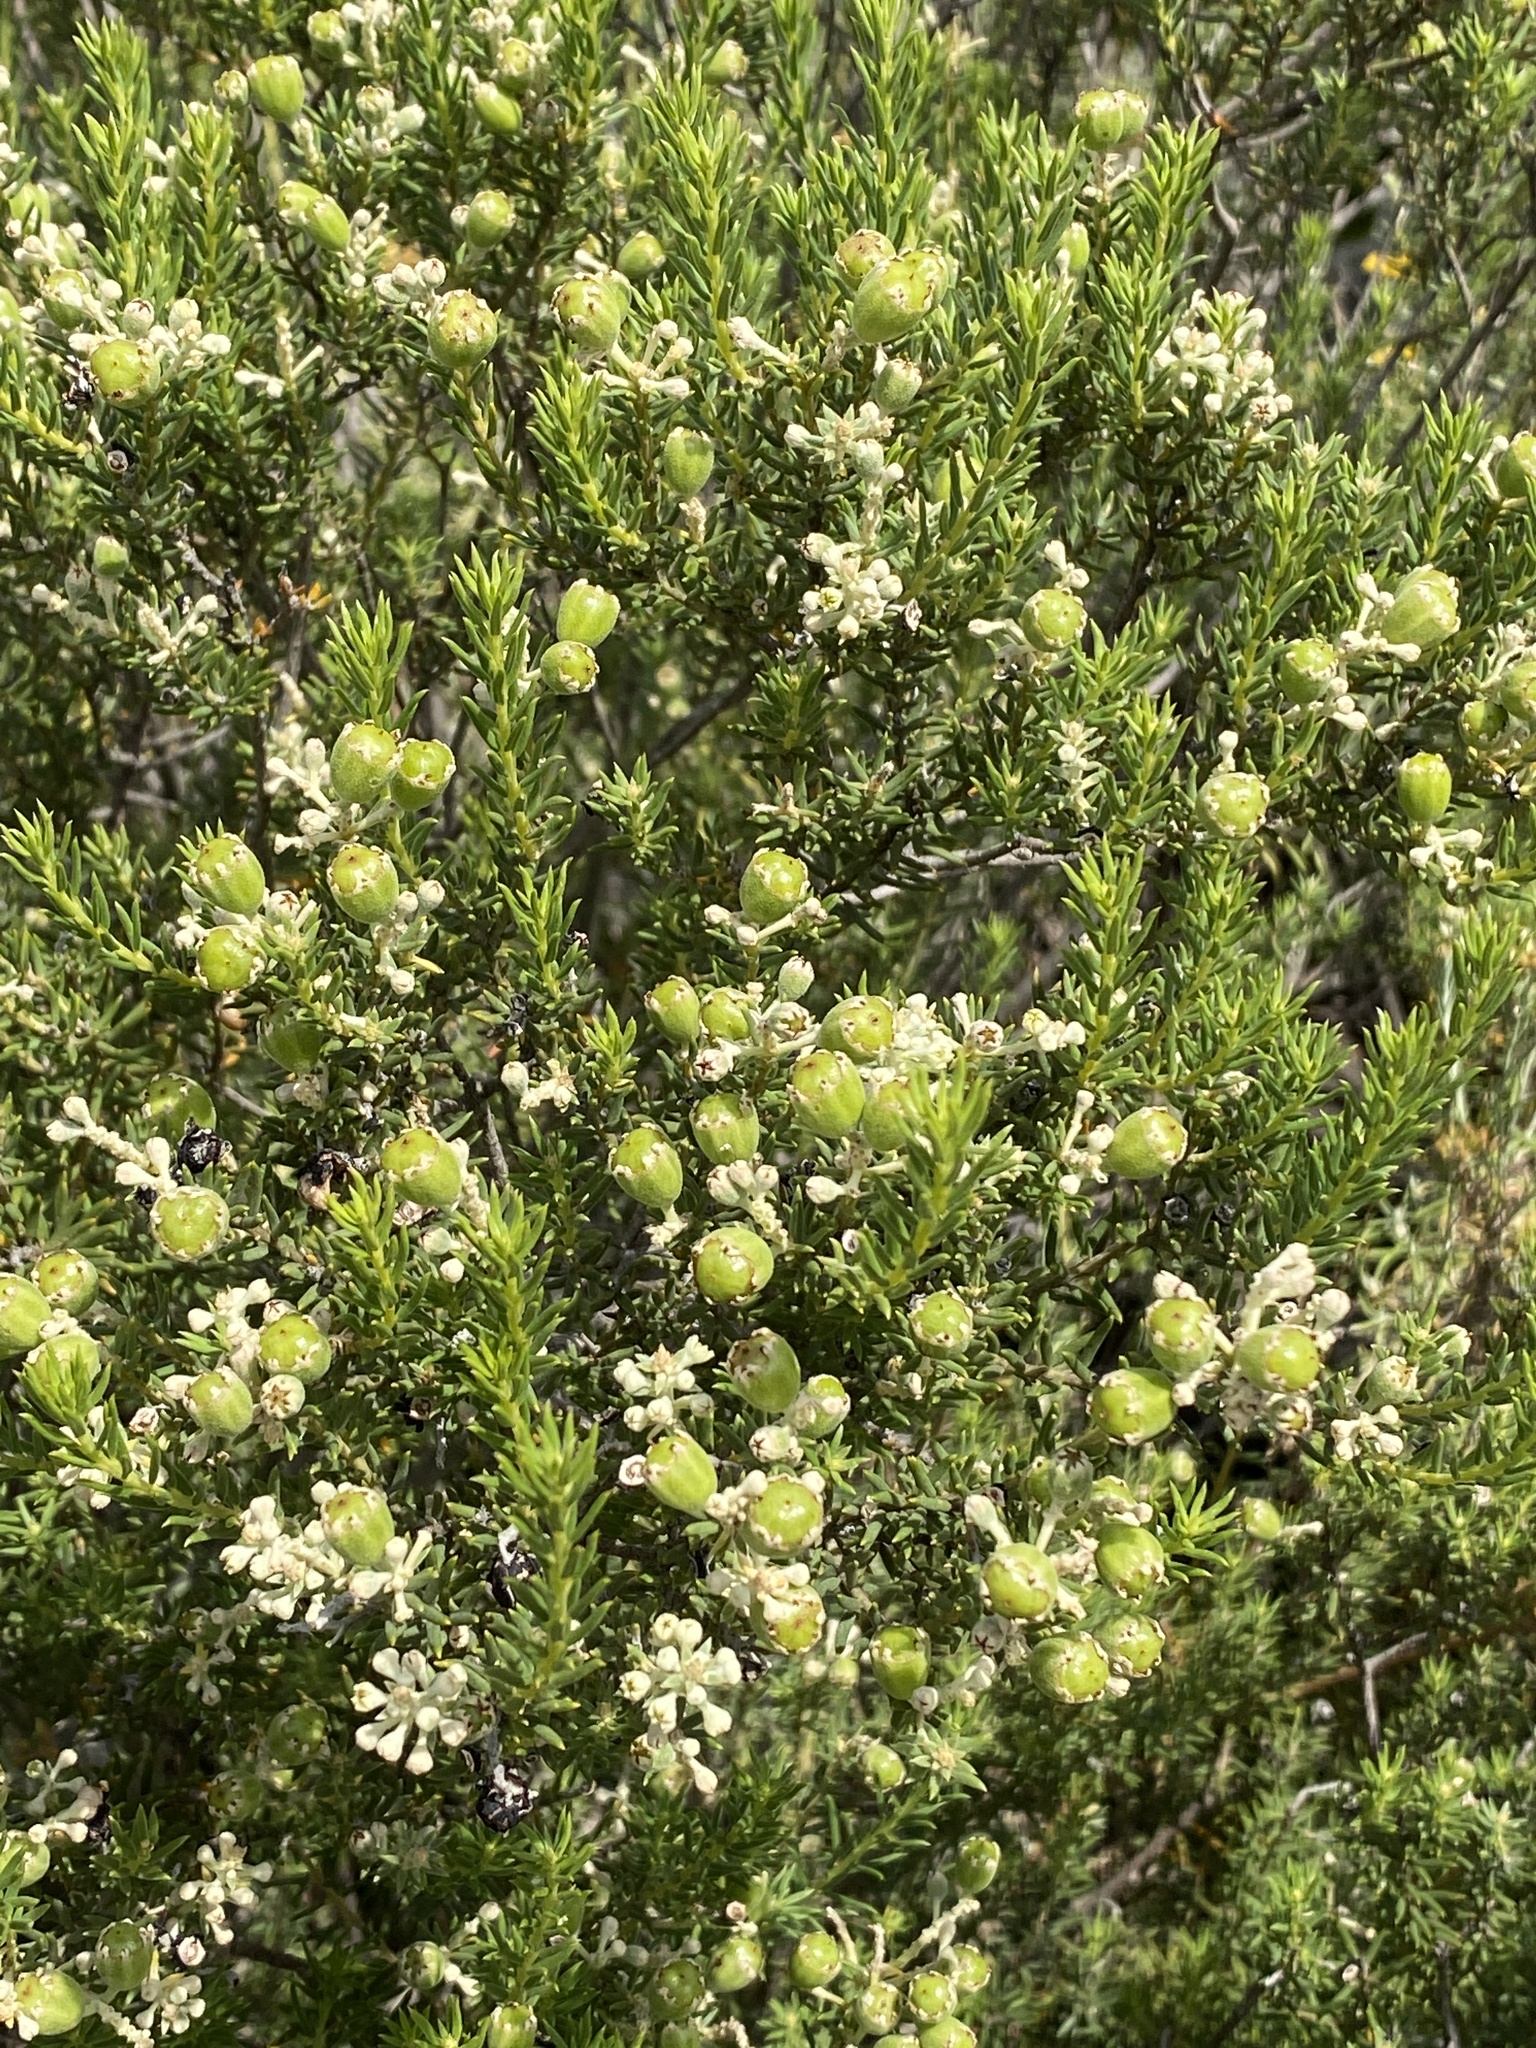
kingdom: Plantae
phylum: Tracheophyta
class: Magnoliopsida
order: Rosales
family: Rhamnaceae
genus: Phylica
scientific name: Phylica rigidifolia
